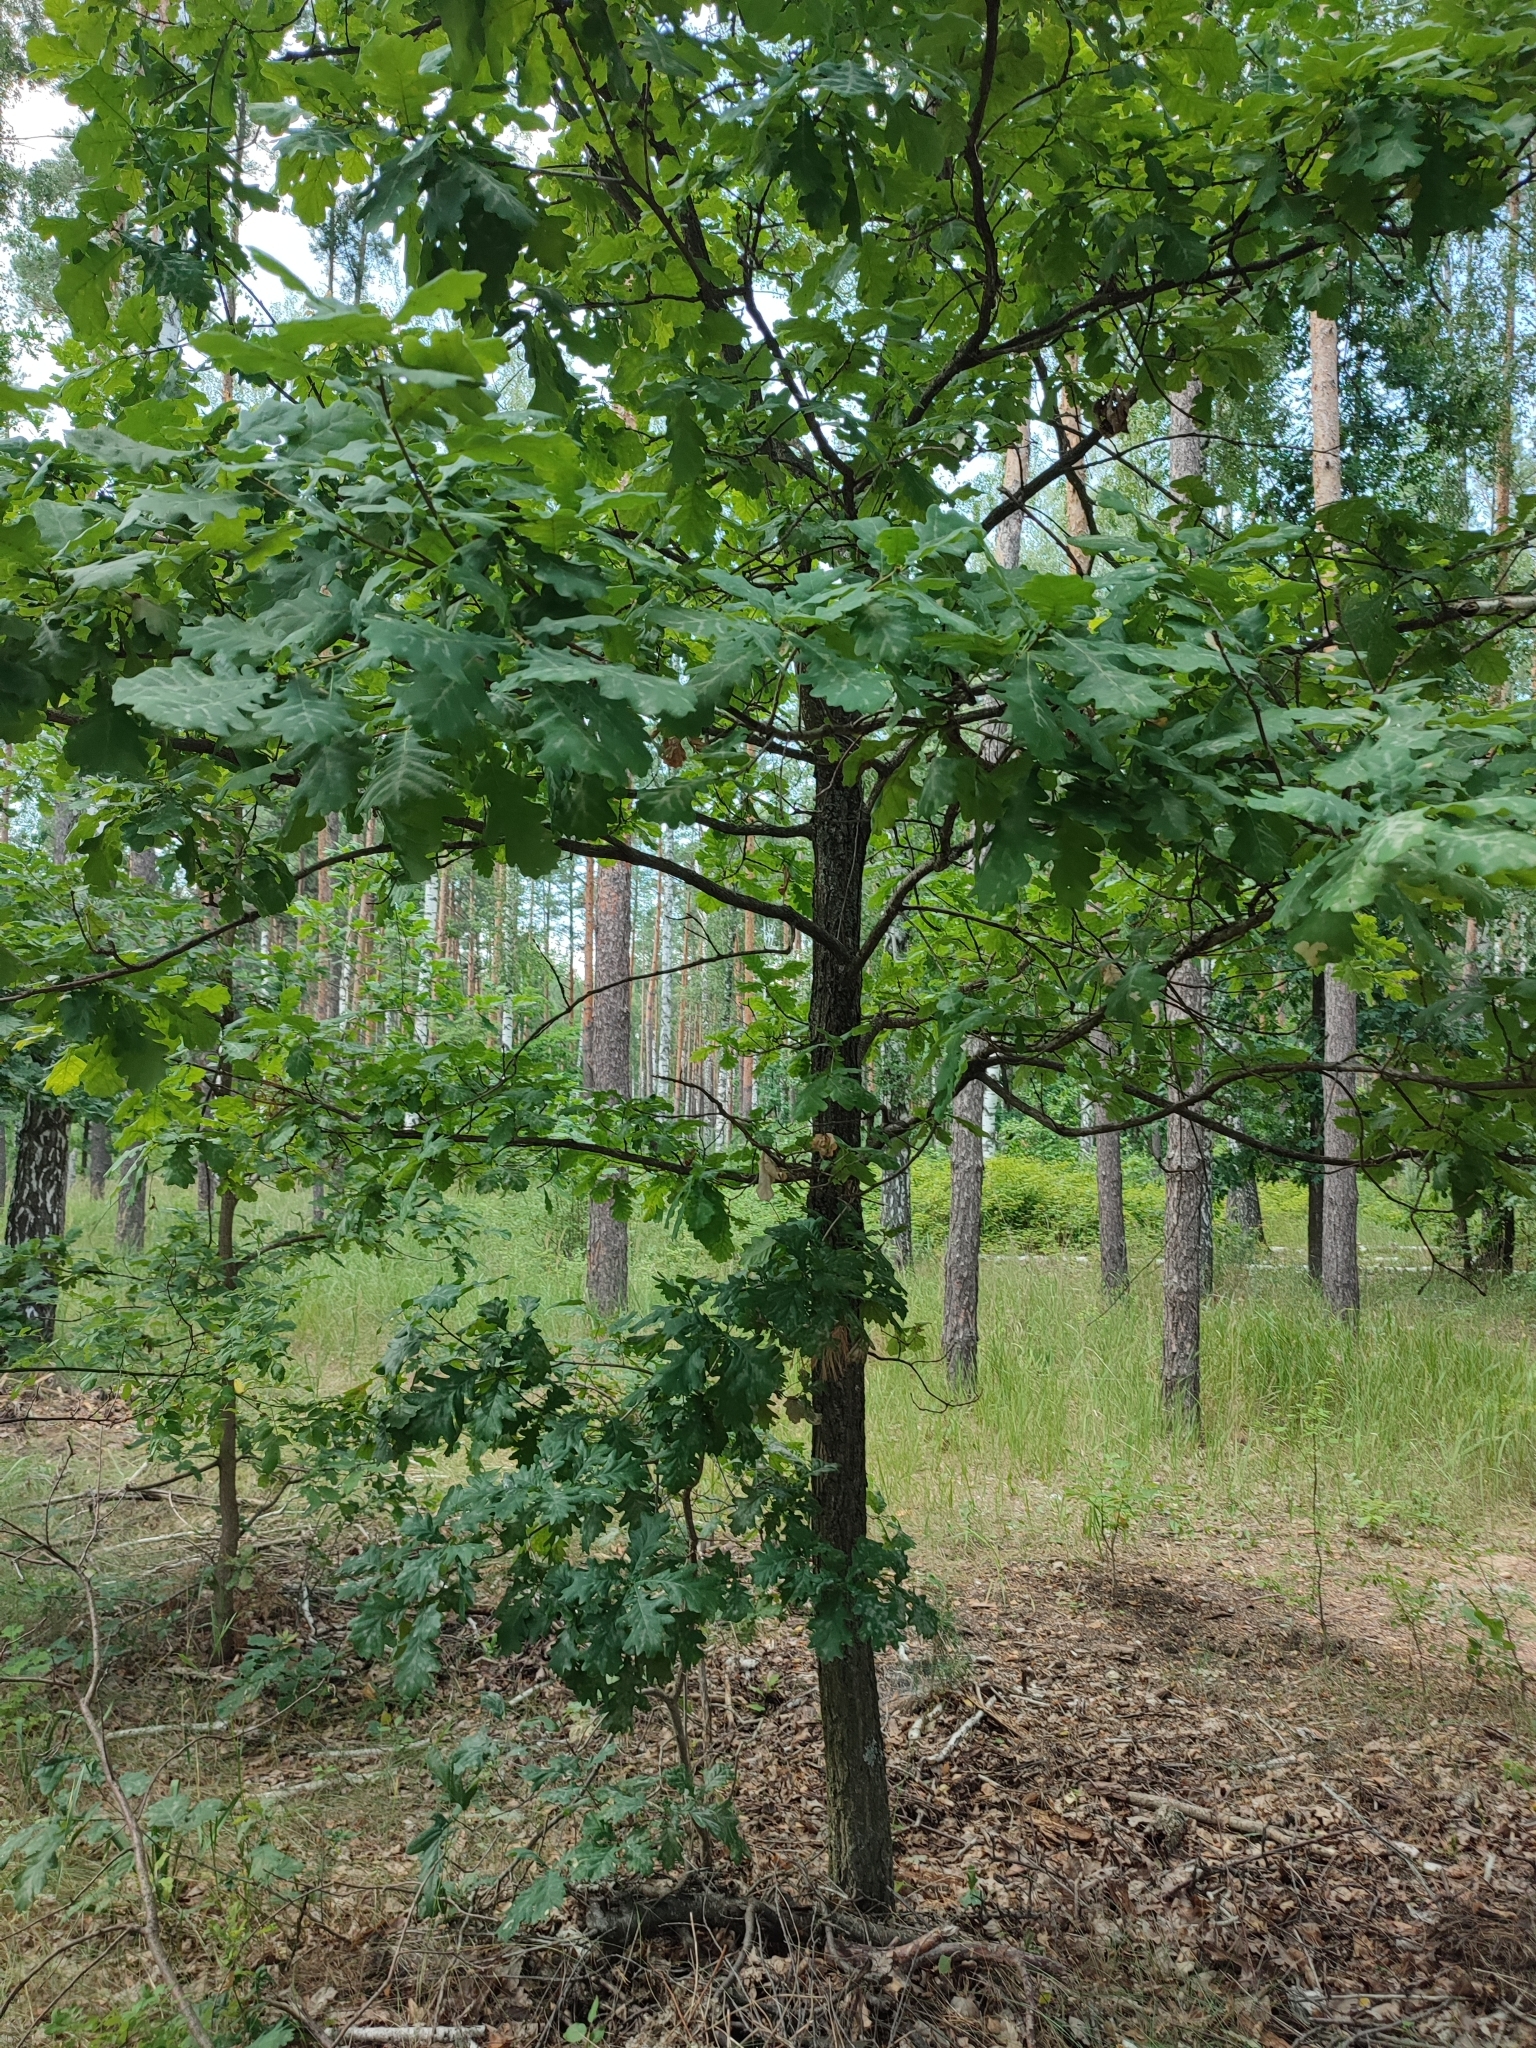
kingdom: Plantae
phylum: Tracheophyta
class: Magnoliopsida
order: Fagales
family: Fagaceae
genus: Quercus
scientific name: Quercus robur
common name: Pedunculate oak
